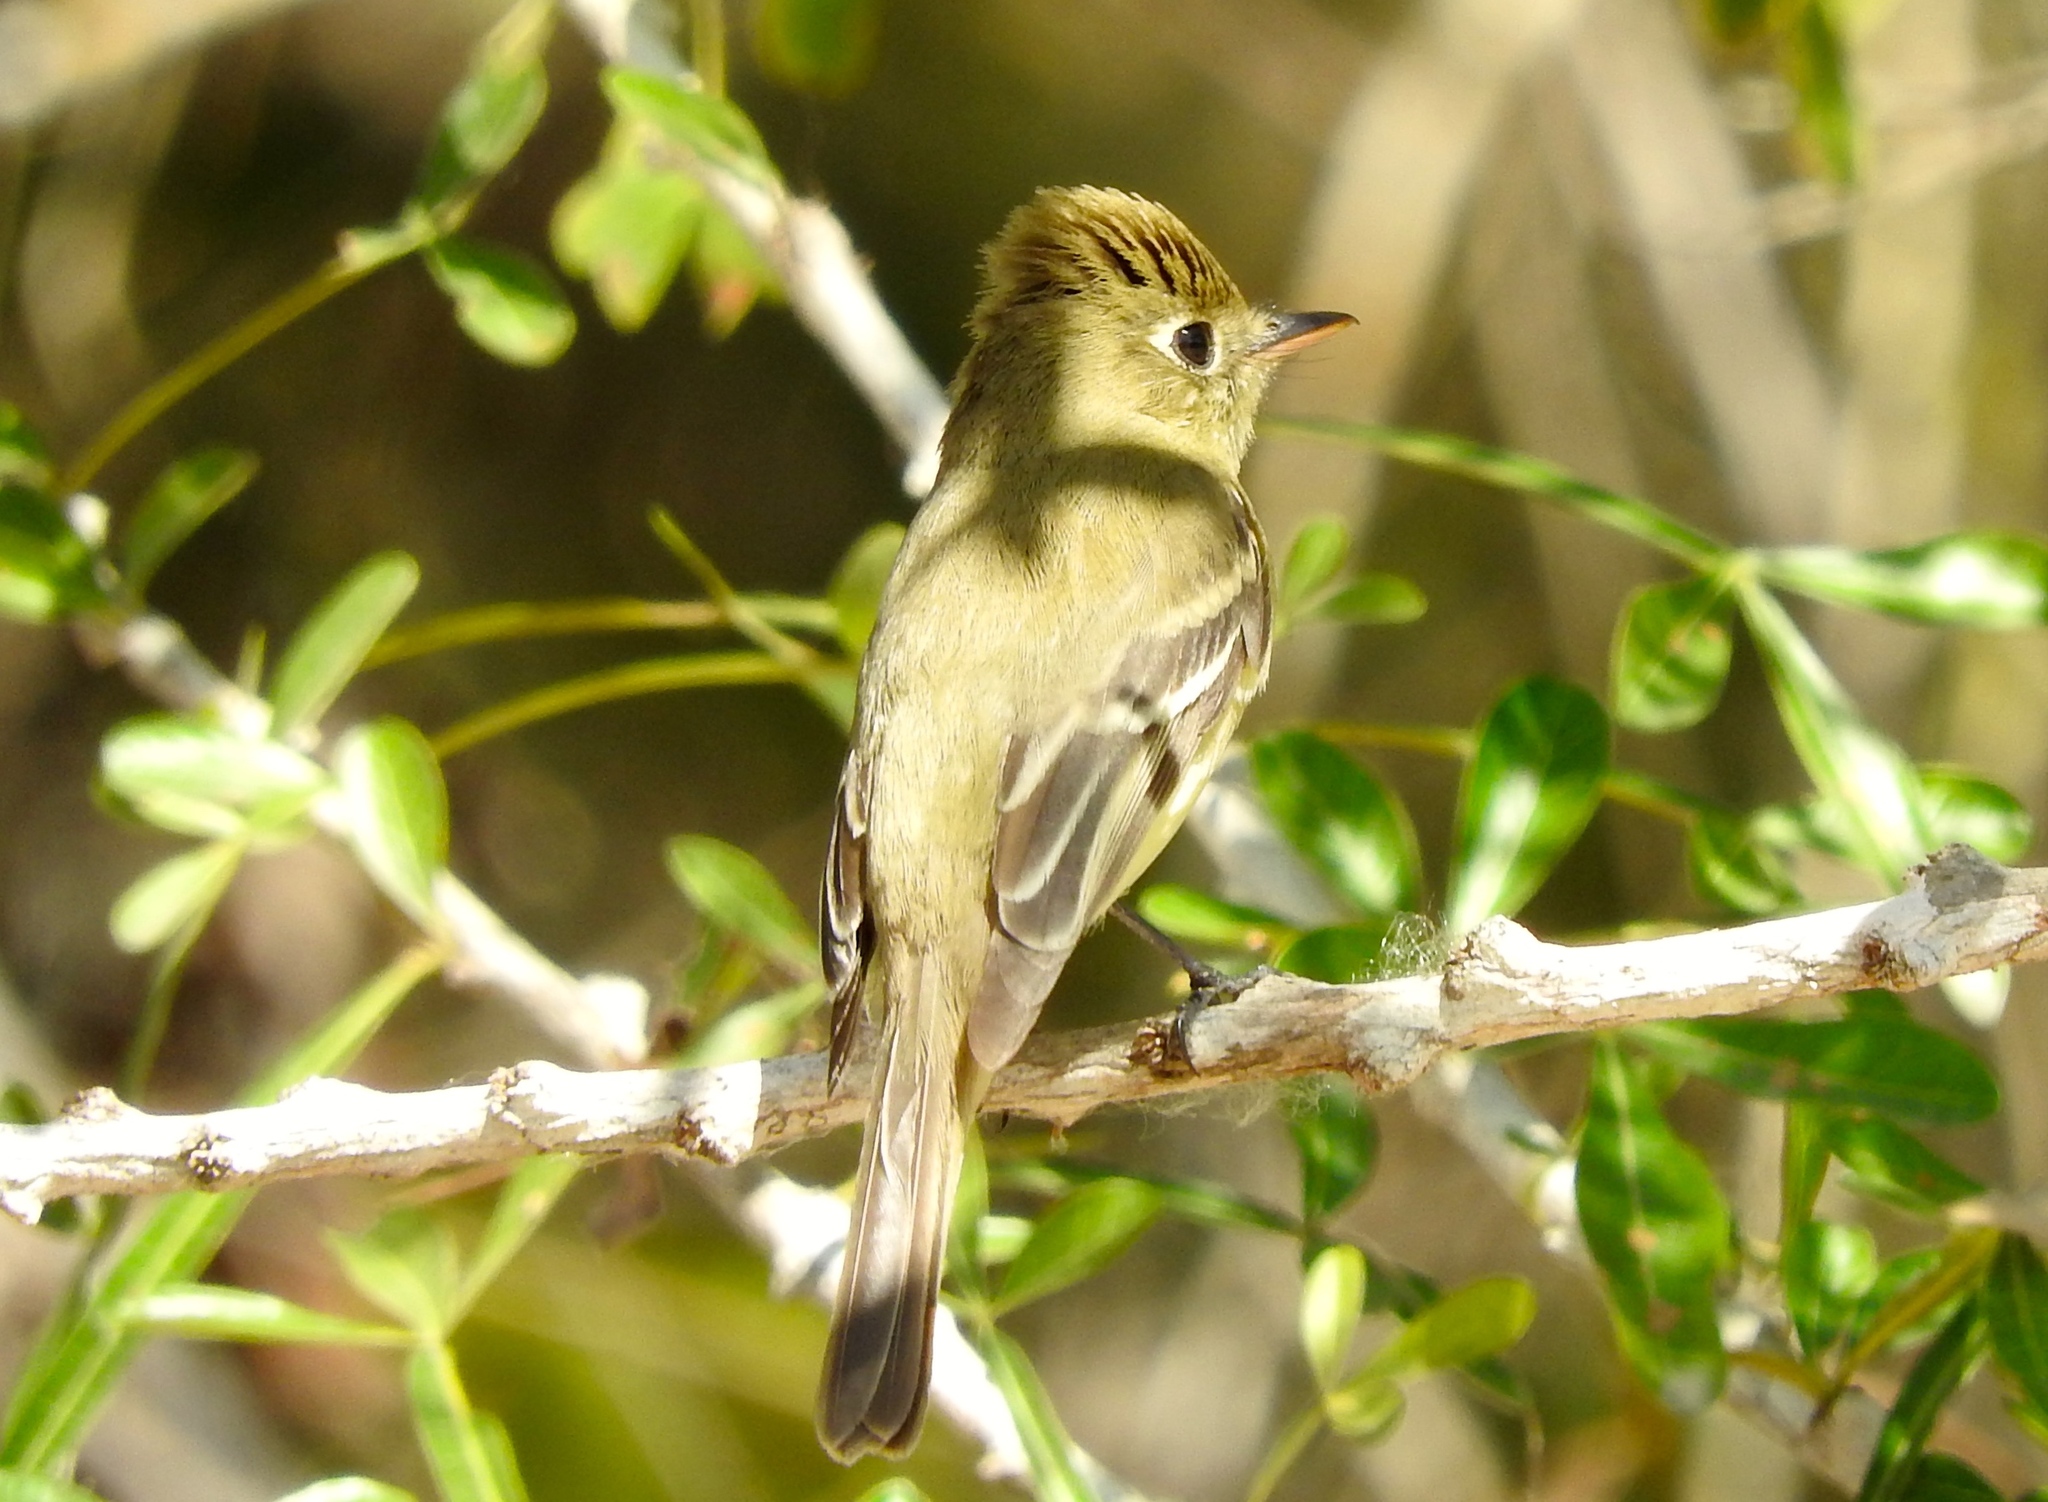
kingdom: Animalia
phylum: Chordata
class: Aves
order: Passeriformes
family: Tyrannidae
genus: Empidonax
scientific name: Empidonax
